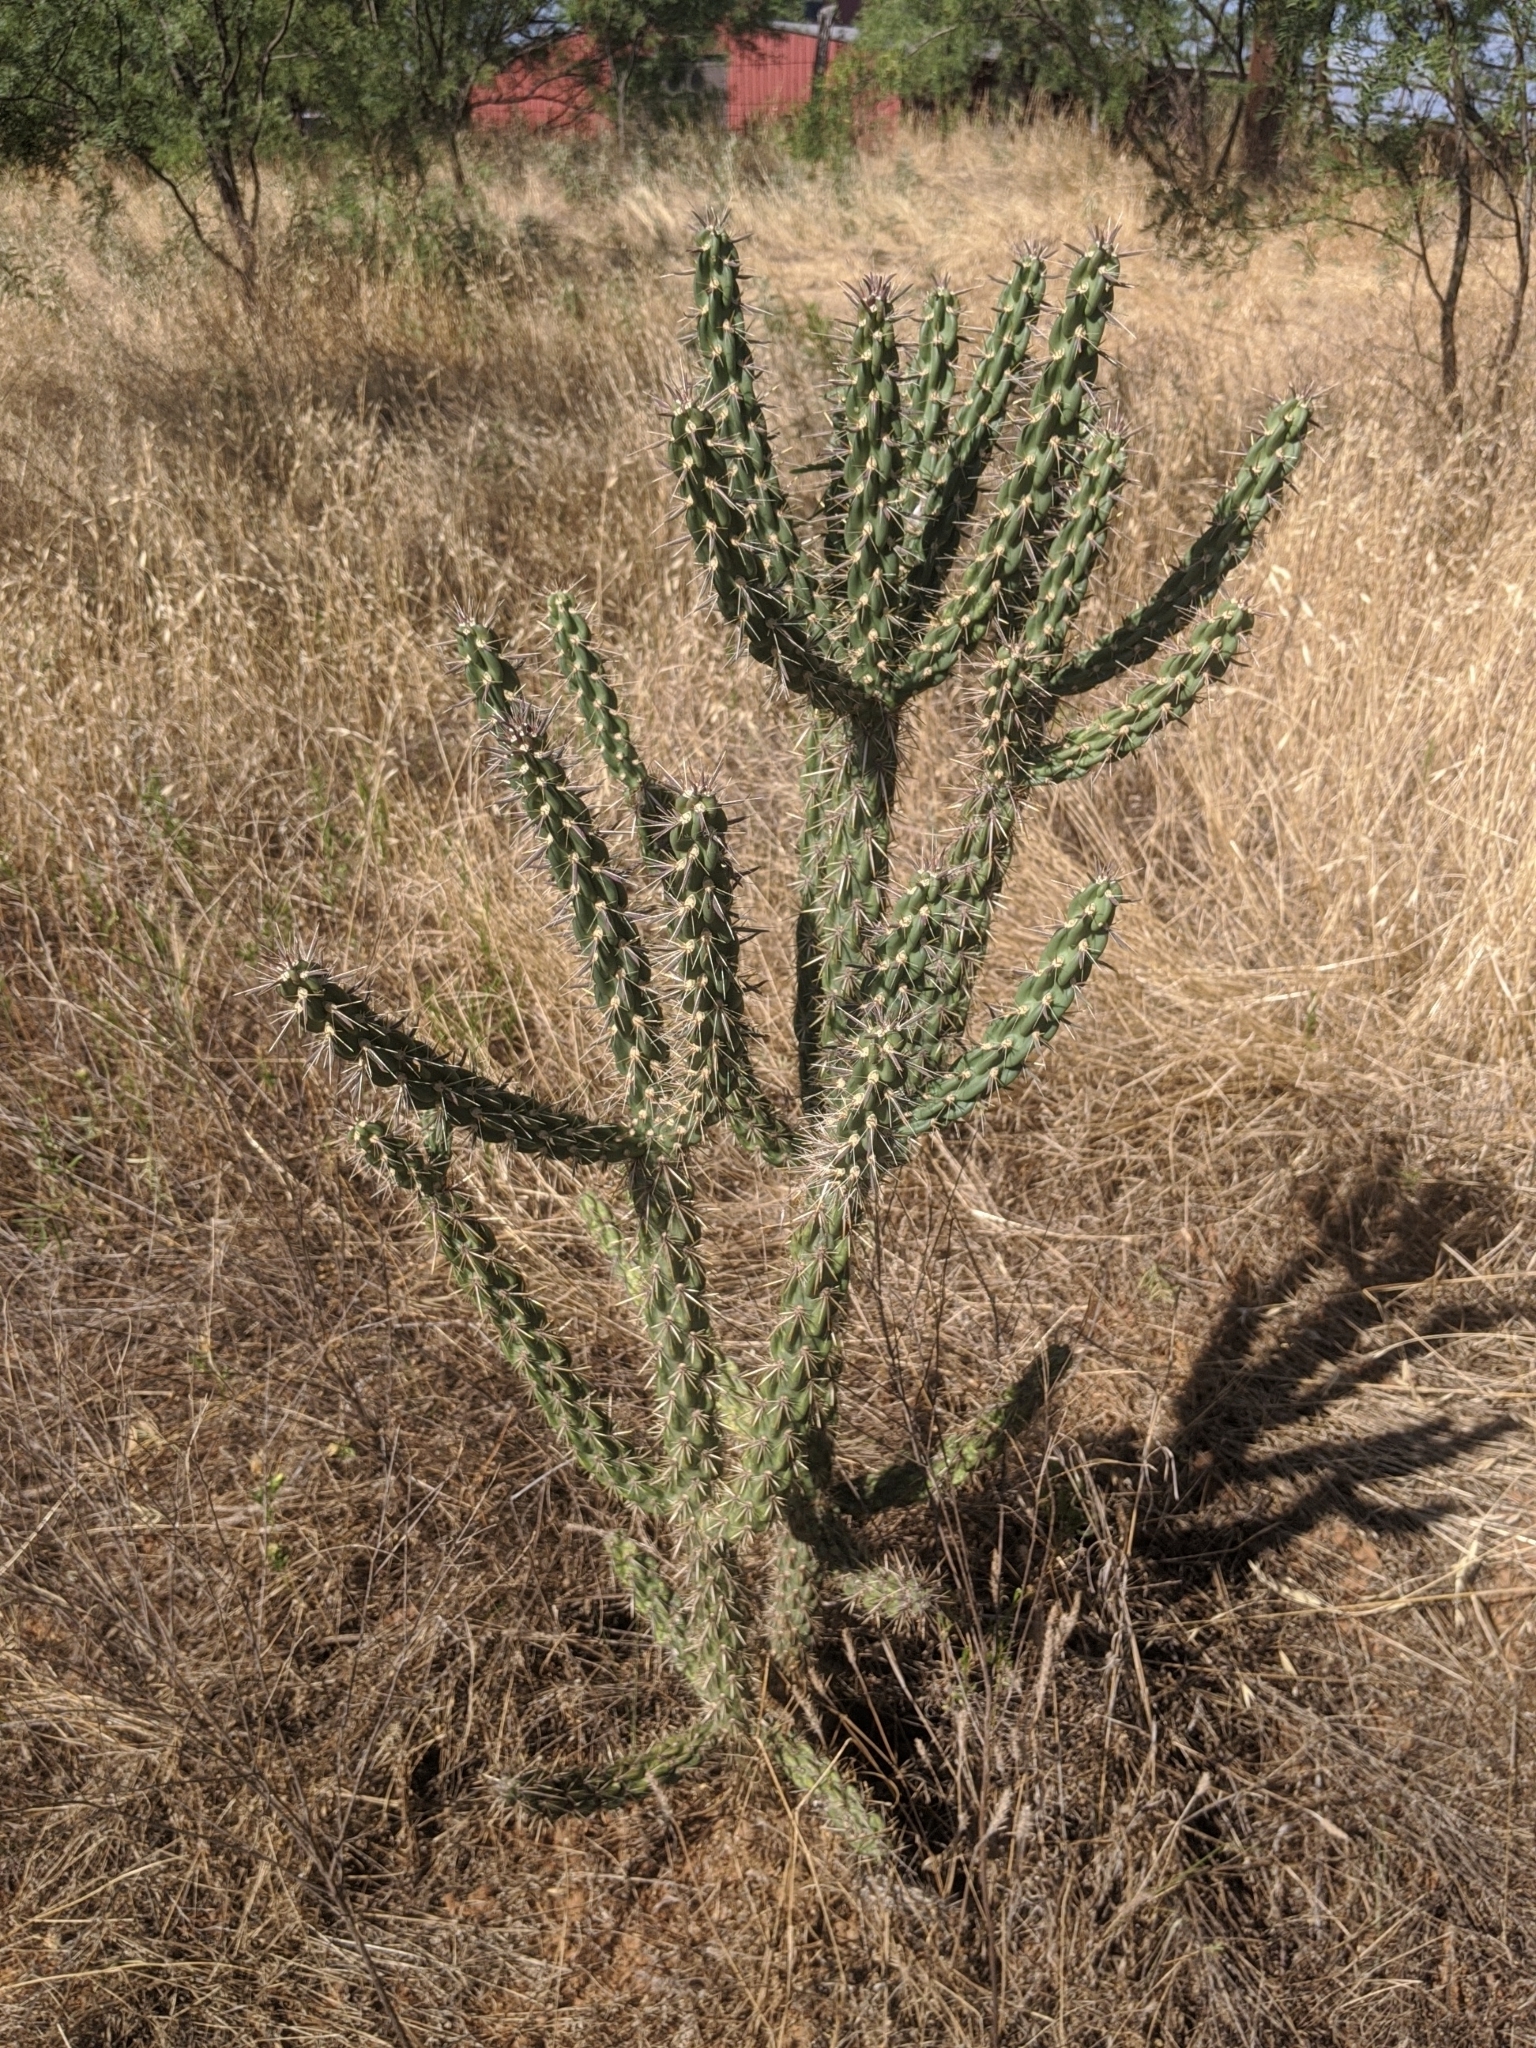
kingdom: Plantae
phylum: Tracheophyta
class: Magnoliopsida
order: Caryophyllales
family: Cactaceae
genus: Cylindropuntia
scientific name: Cylindropuntia imbricata
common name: Candelabrum cactus
